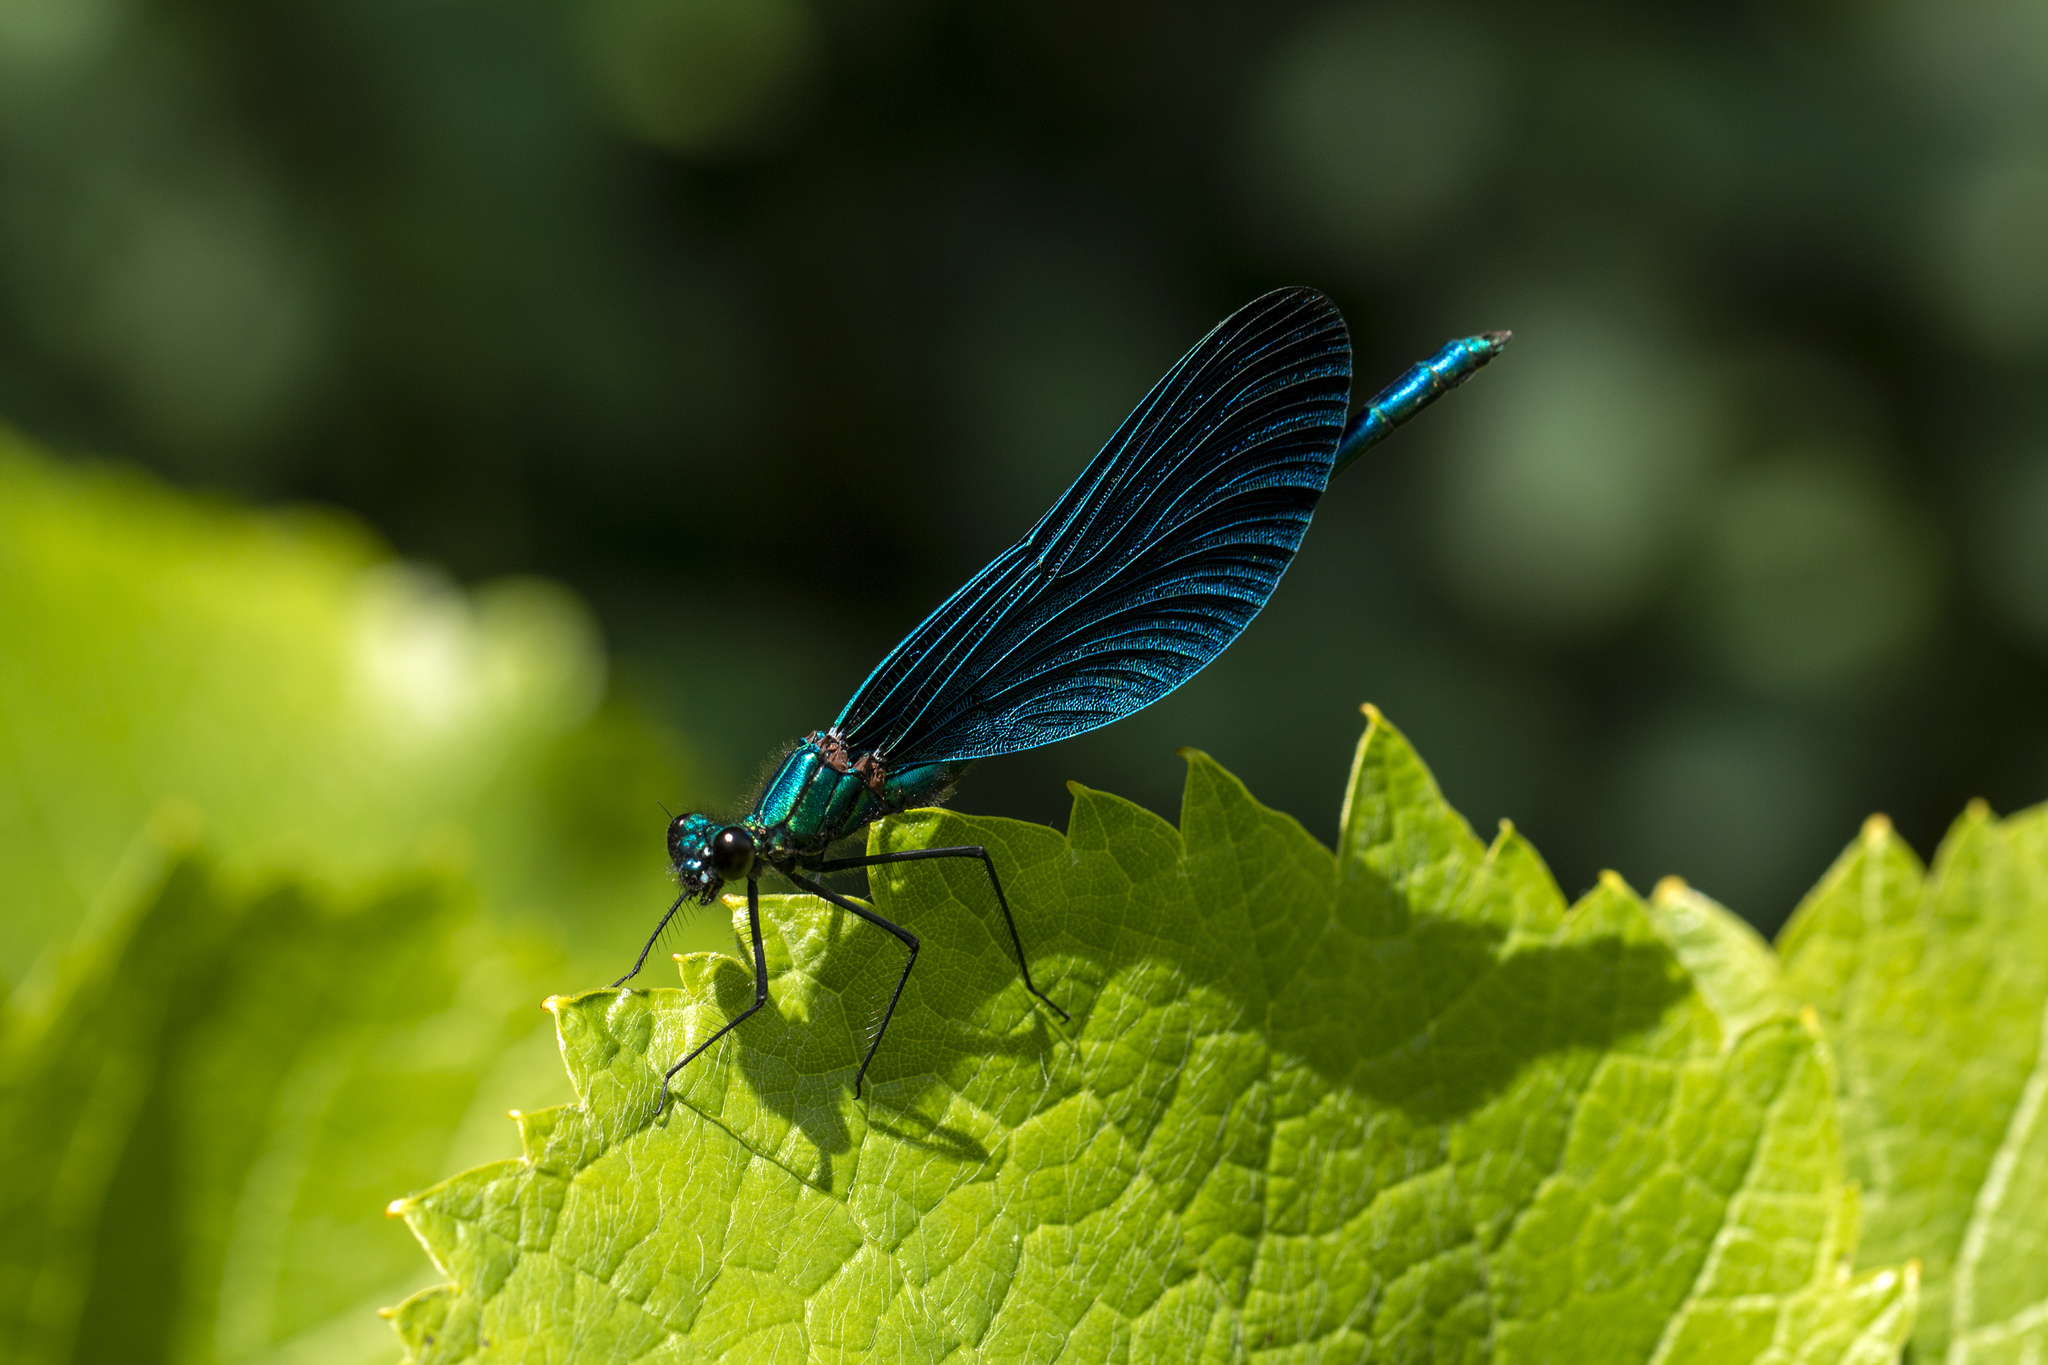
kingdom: Animalia
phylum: Arthropoda
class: Insecta
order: Odonata
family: Calopterygidae
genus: Calopteryx
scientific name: Calopteryx virgo
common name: Beautiful demoiselle
